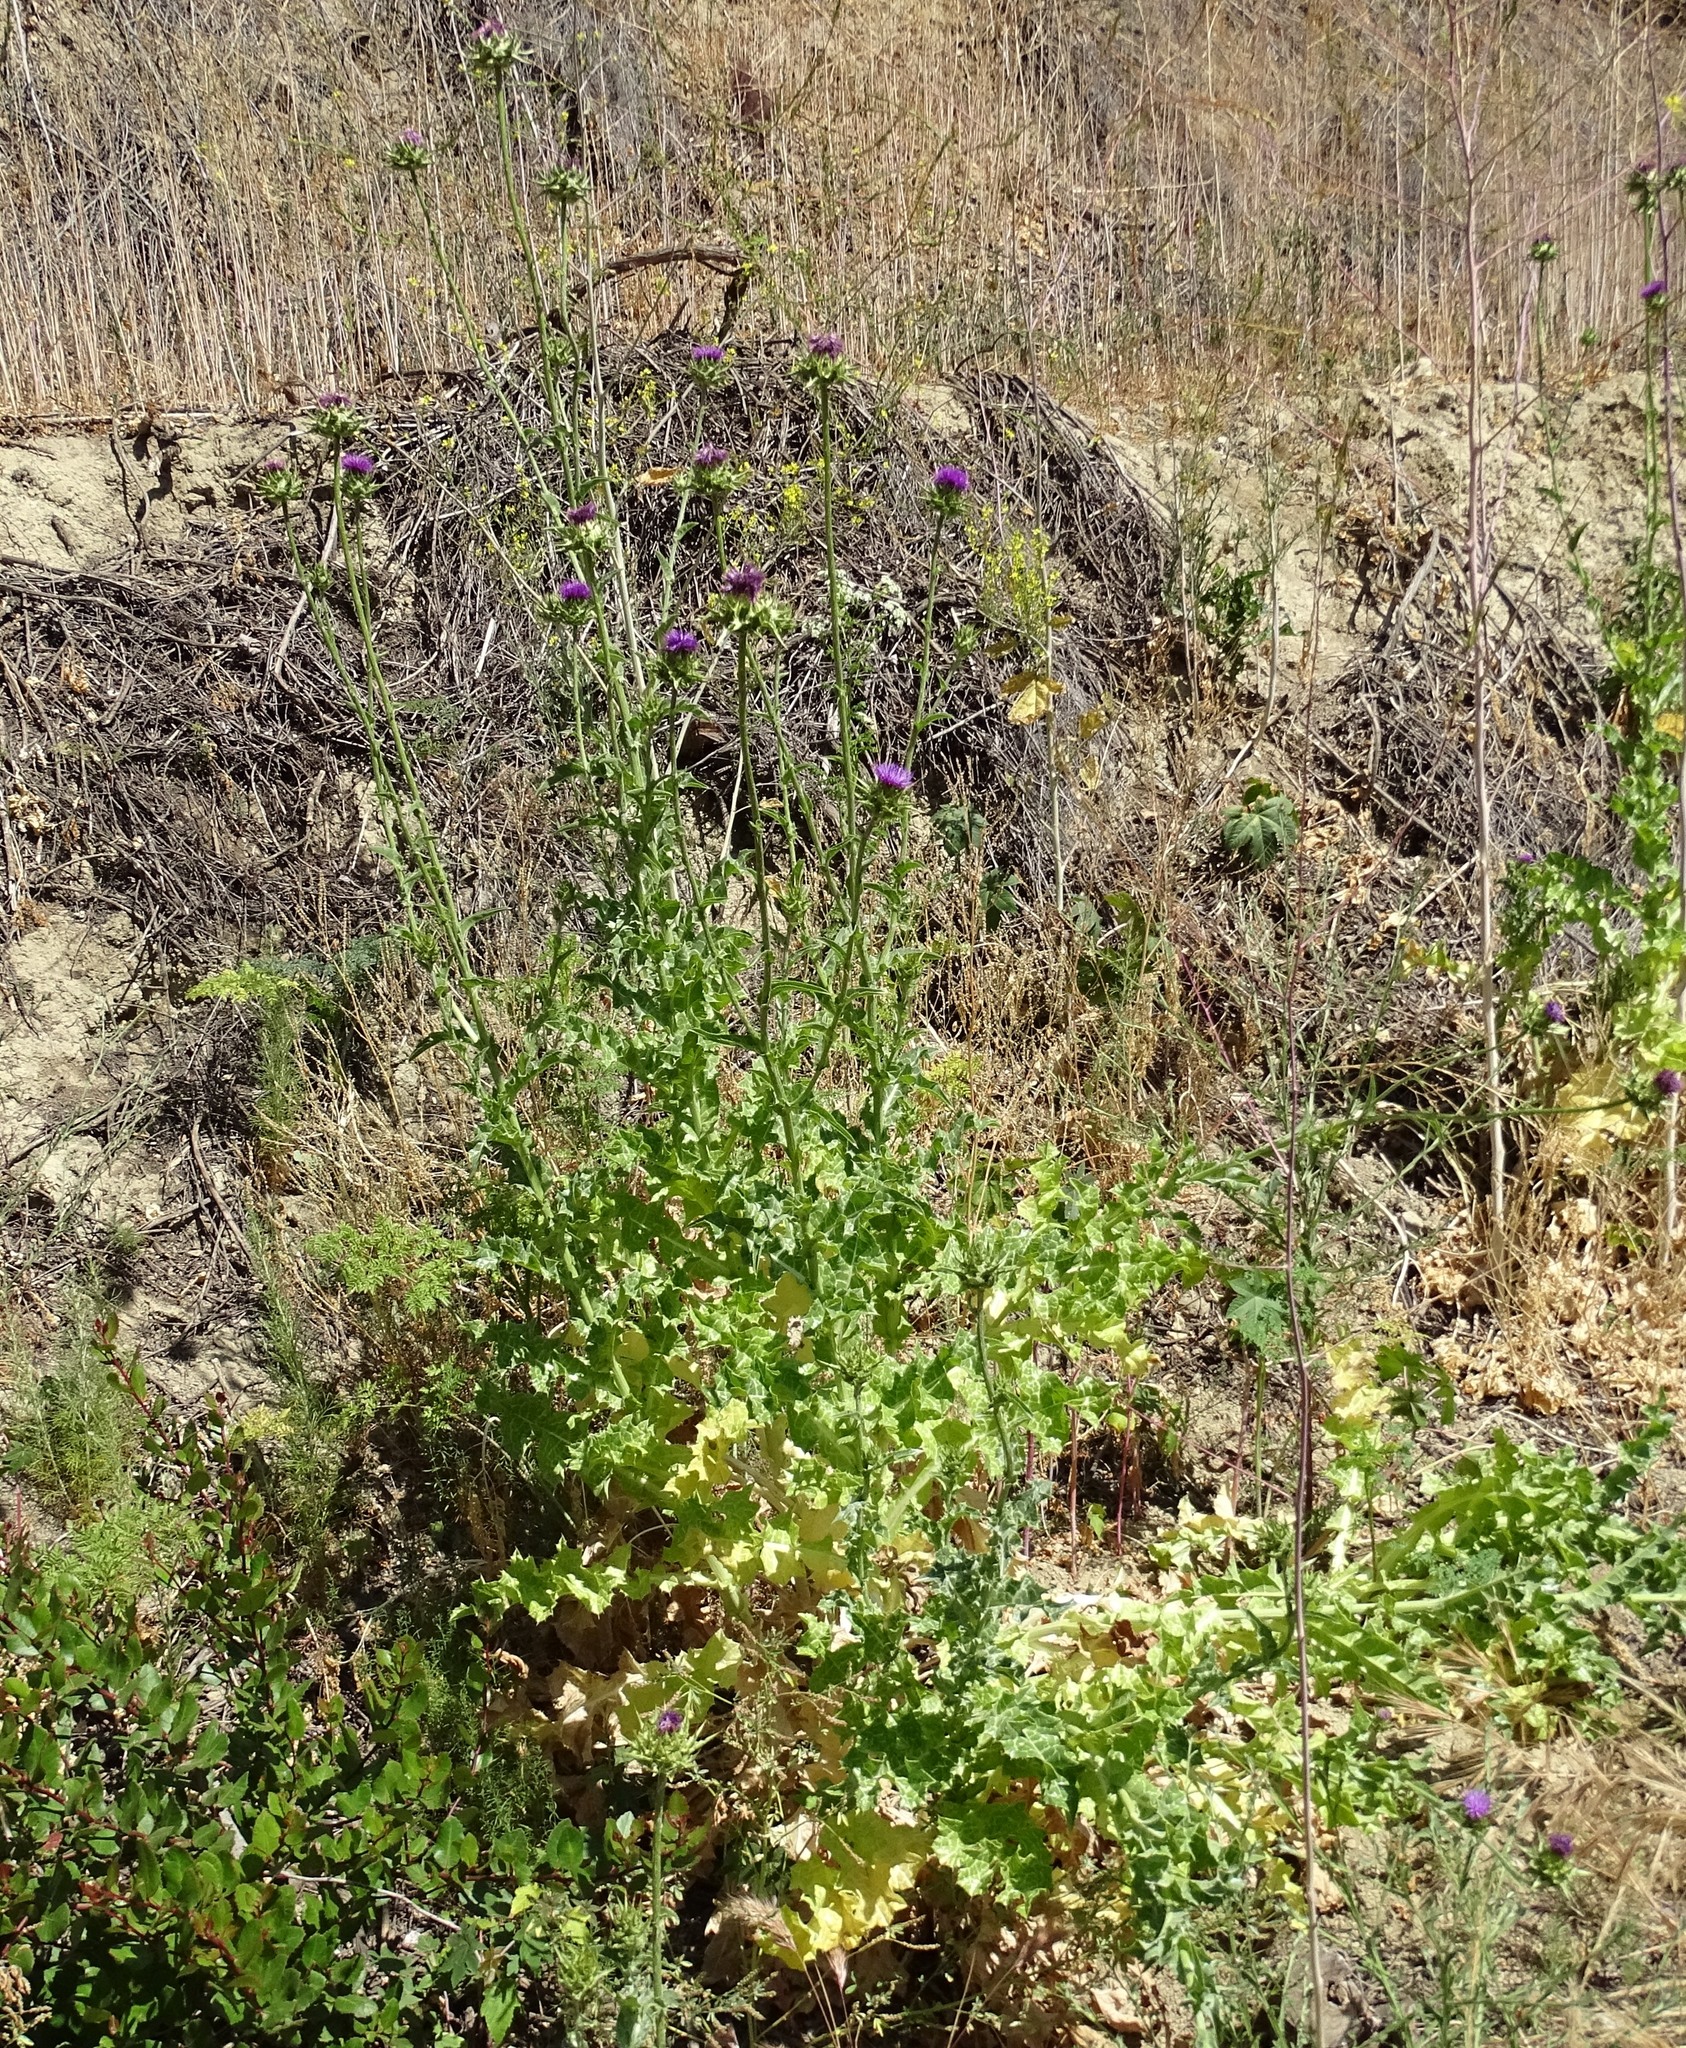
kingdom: Plantae
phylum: Tracheophyta
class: Magnoliopsida
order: Asterales
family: Asteraceae
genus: Silybum
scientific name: Silybum marianum
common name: Milk thistle
